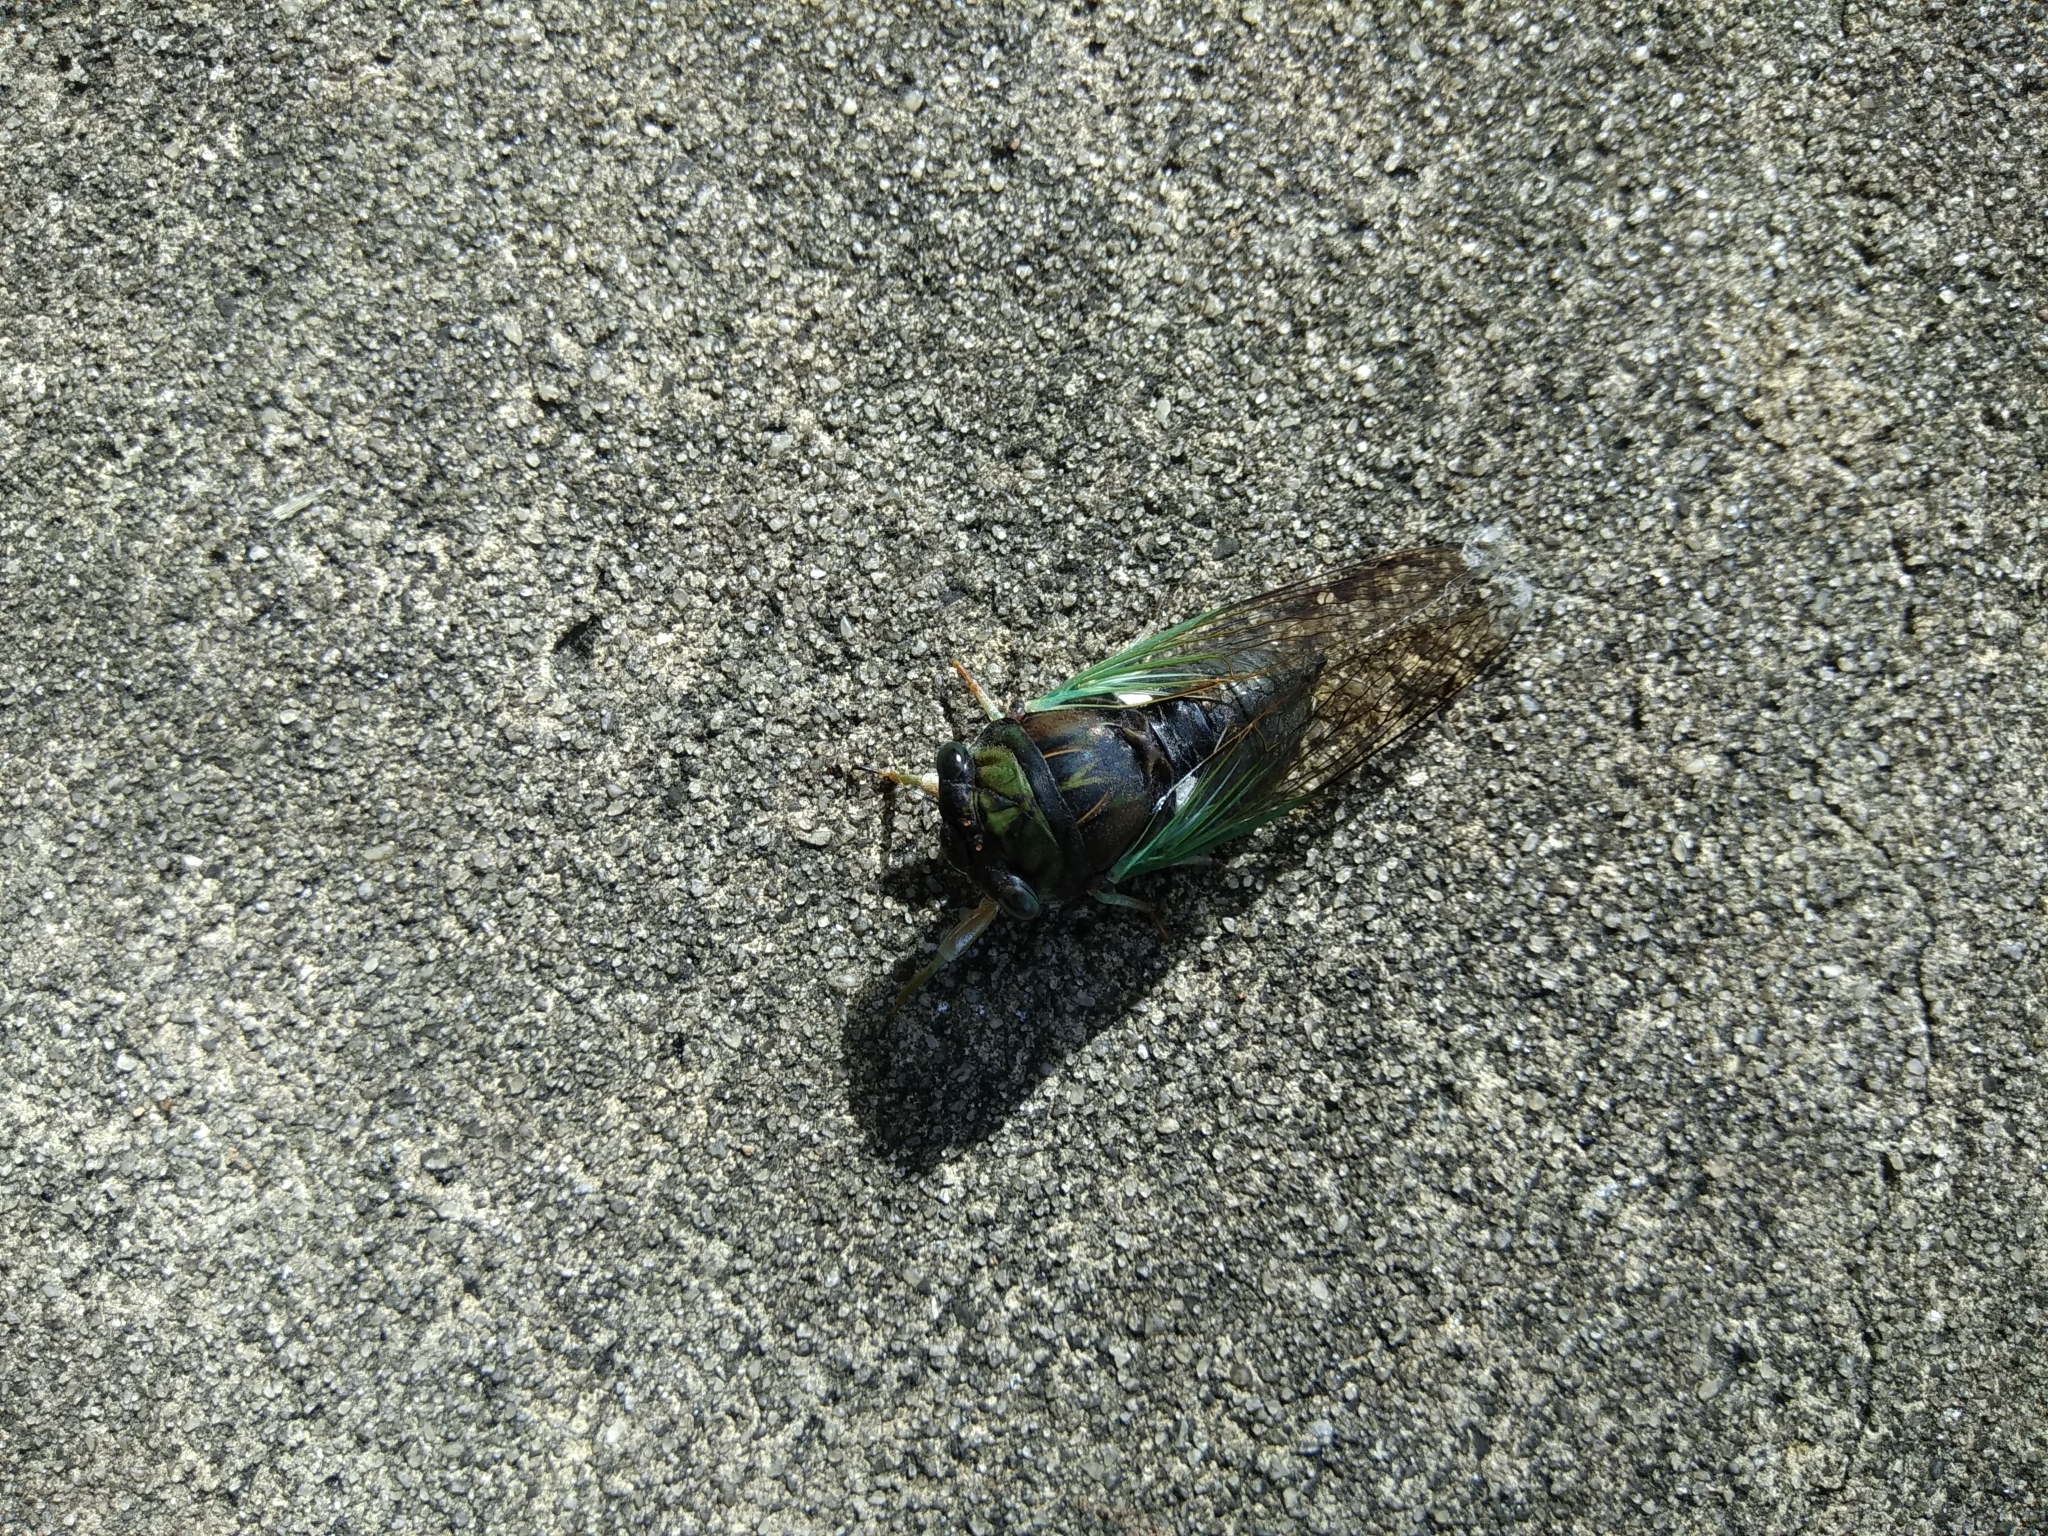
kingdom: Animalia
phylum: Arthropoda
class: Insecta
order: Hemiptera
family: Cicadidae
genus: Neotibicen
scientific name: Neotibicen tibicen
